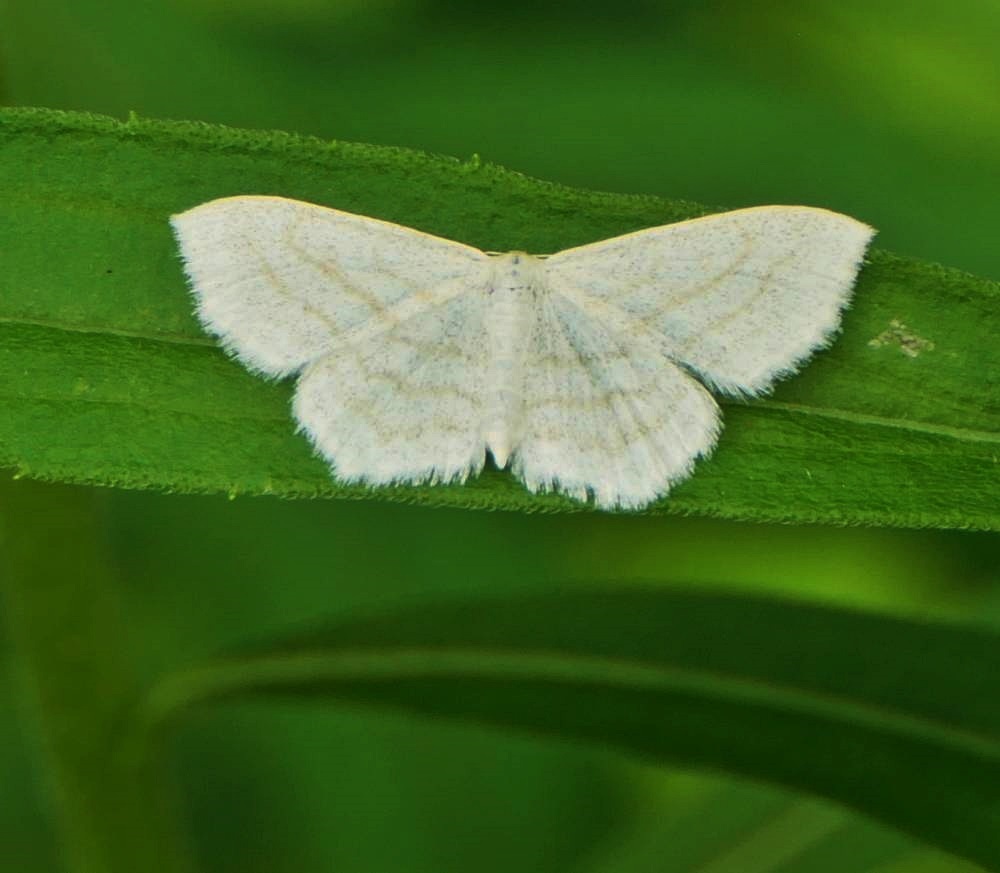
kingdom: Animalia
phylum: Arthropoda
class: Insecta
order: Lepidoptera
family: Geometridae
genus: Scopula
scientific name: Scopula junctaria
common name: Simple wave
